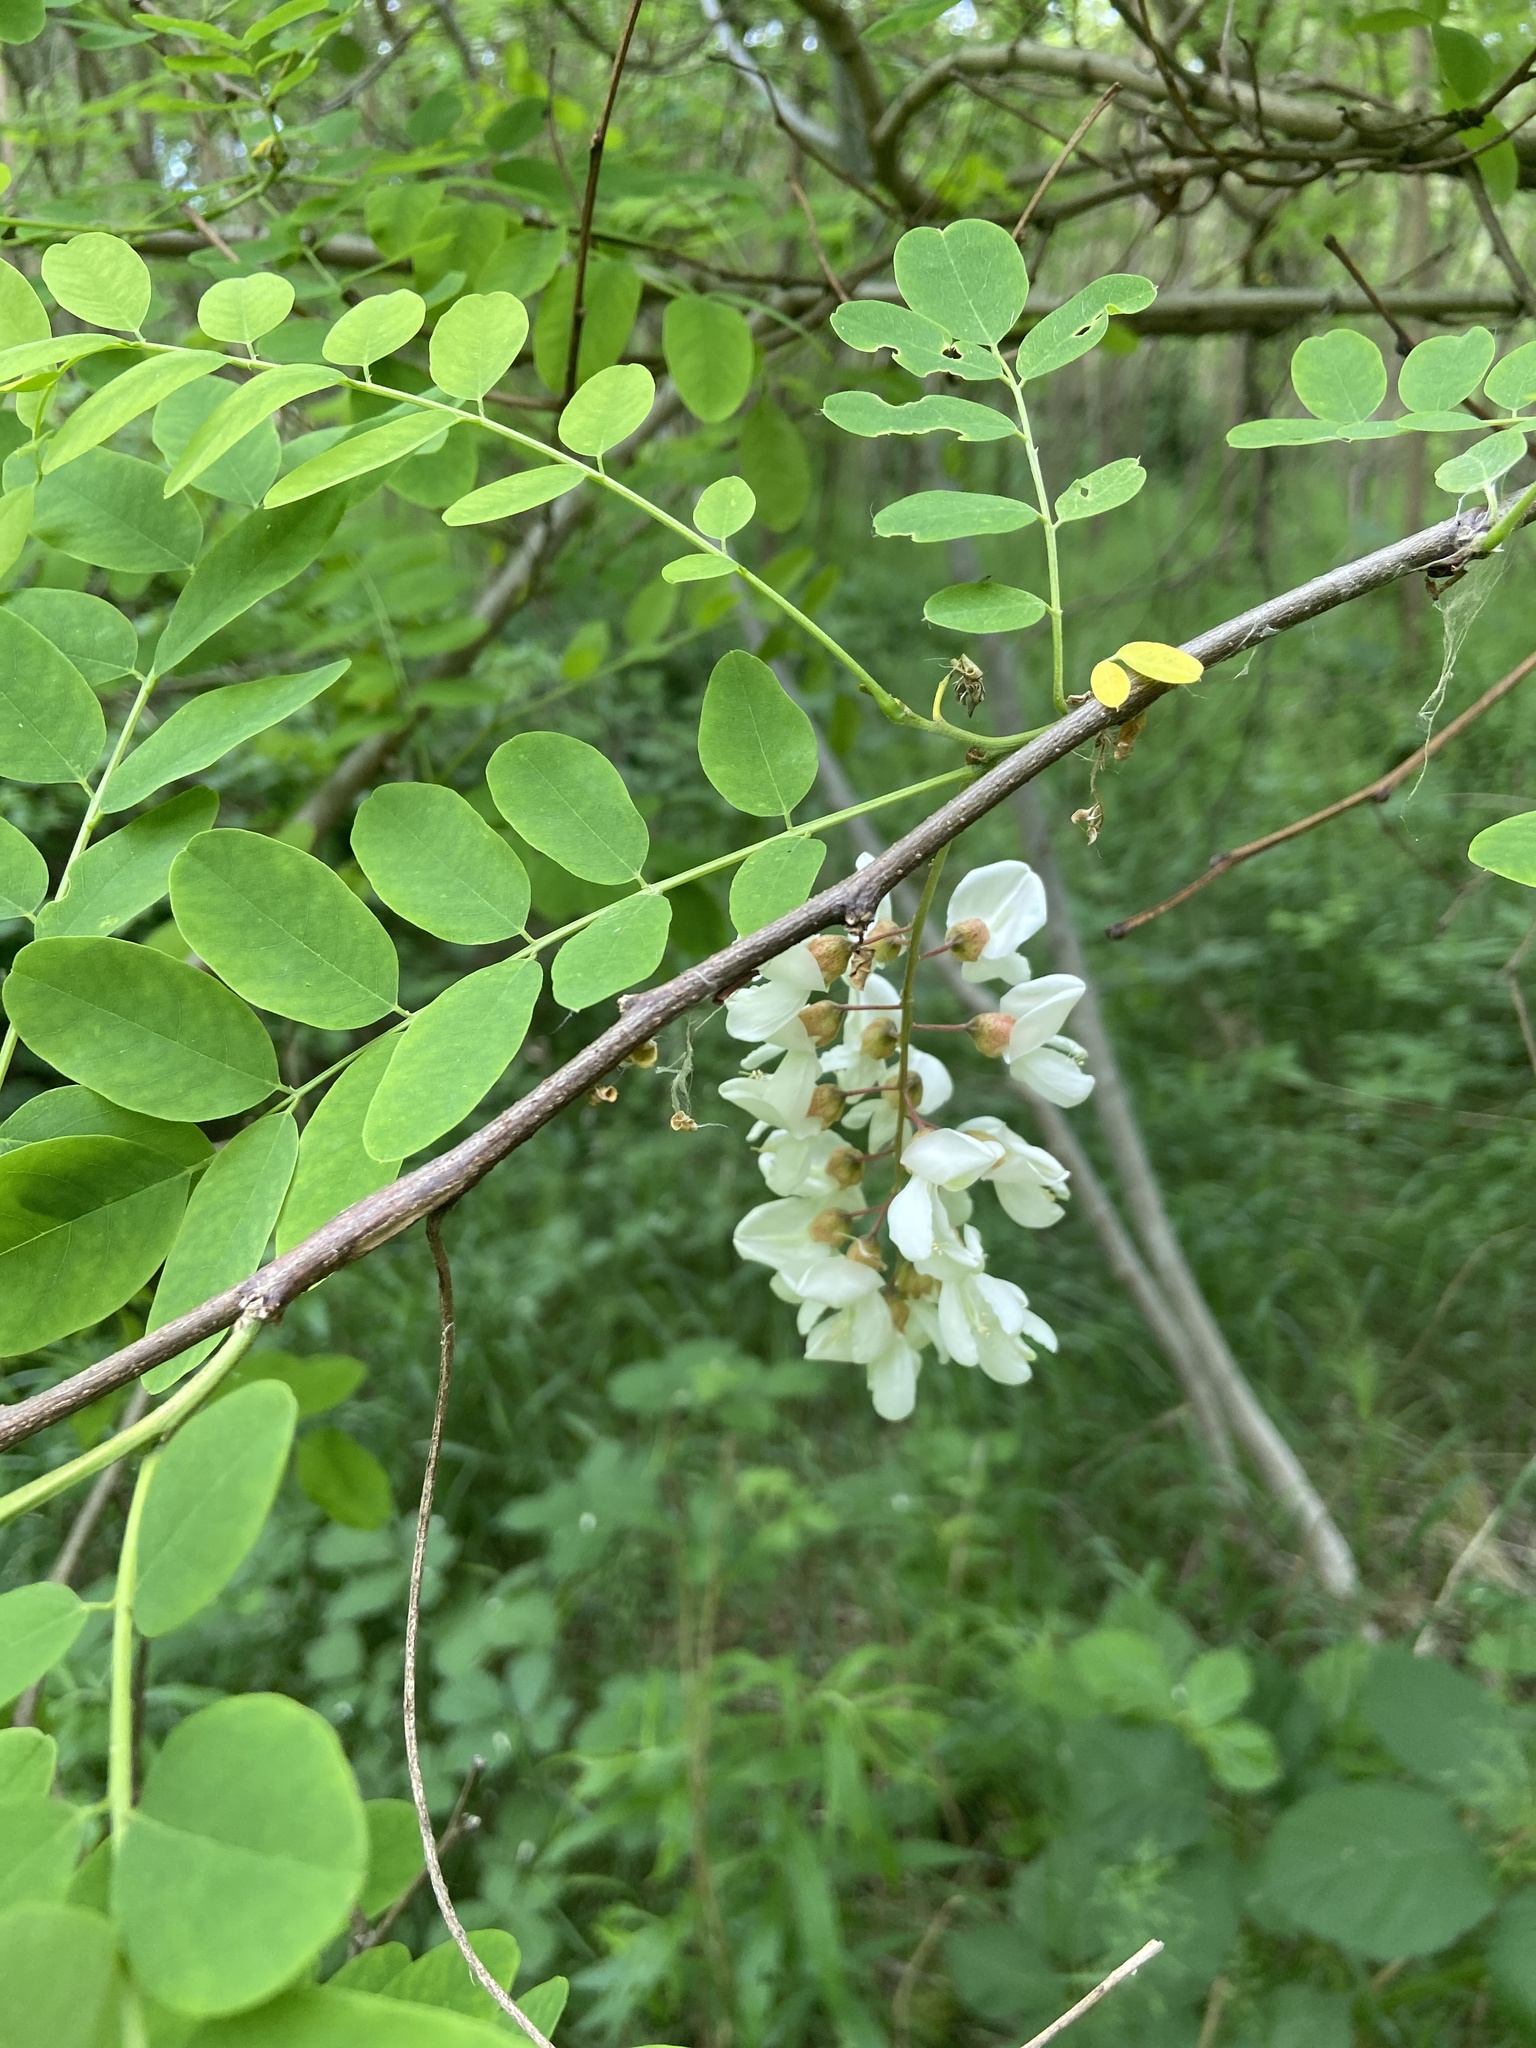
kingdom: Plantae
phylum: Tracheophyta
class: Magnoliopsida
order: Fabales
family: Fabaceae
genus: Robinia
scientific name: Robinia pseudoacacia
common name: Black locust
